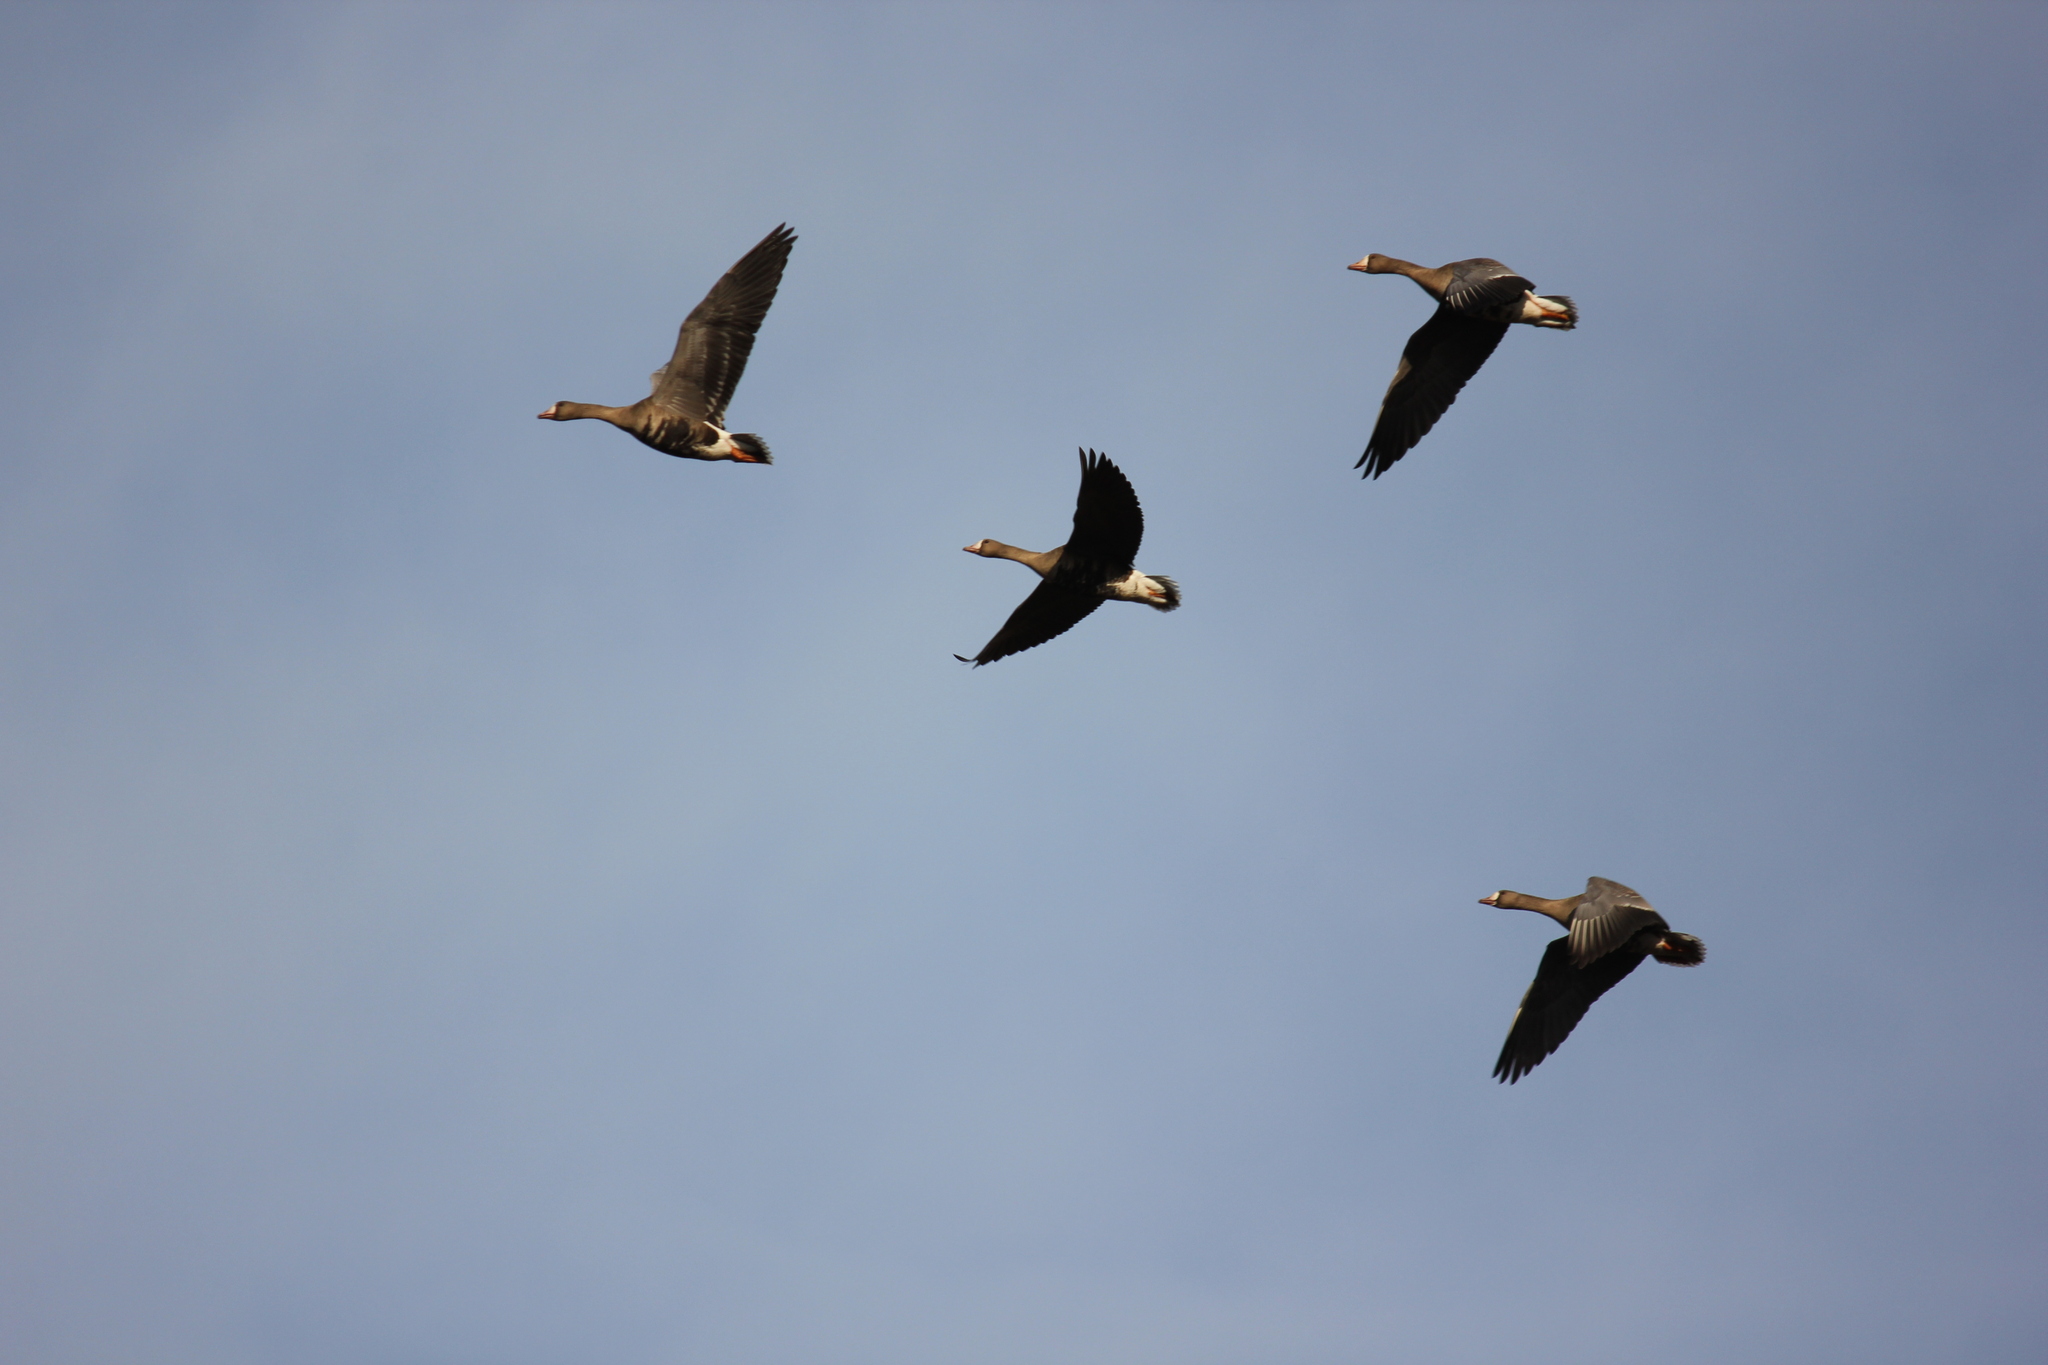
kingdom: Animalia
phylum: Chordata
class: Aves
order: Anseriformes
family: Anatidae
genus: Anser
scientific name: Anser albifrons
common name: Greater white-fronted goose
